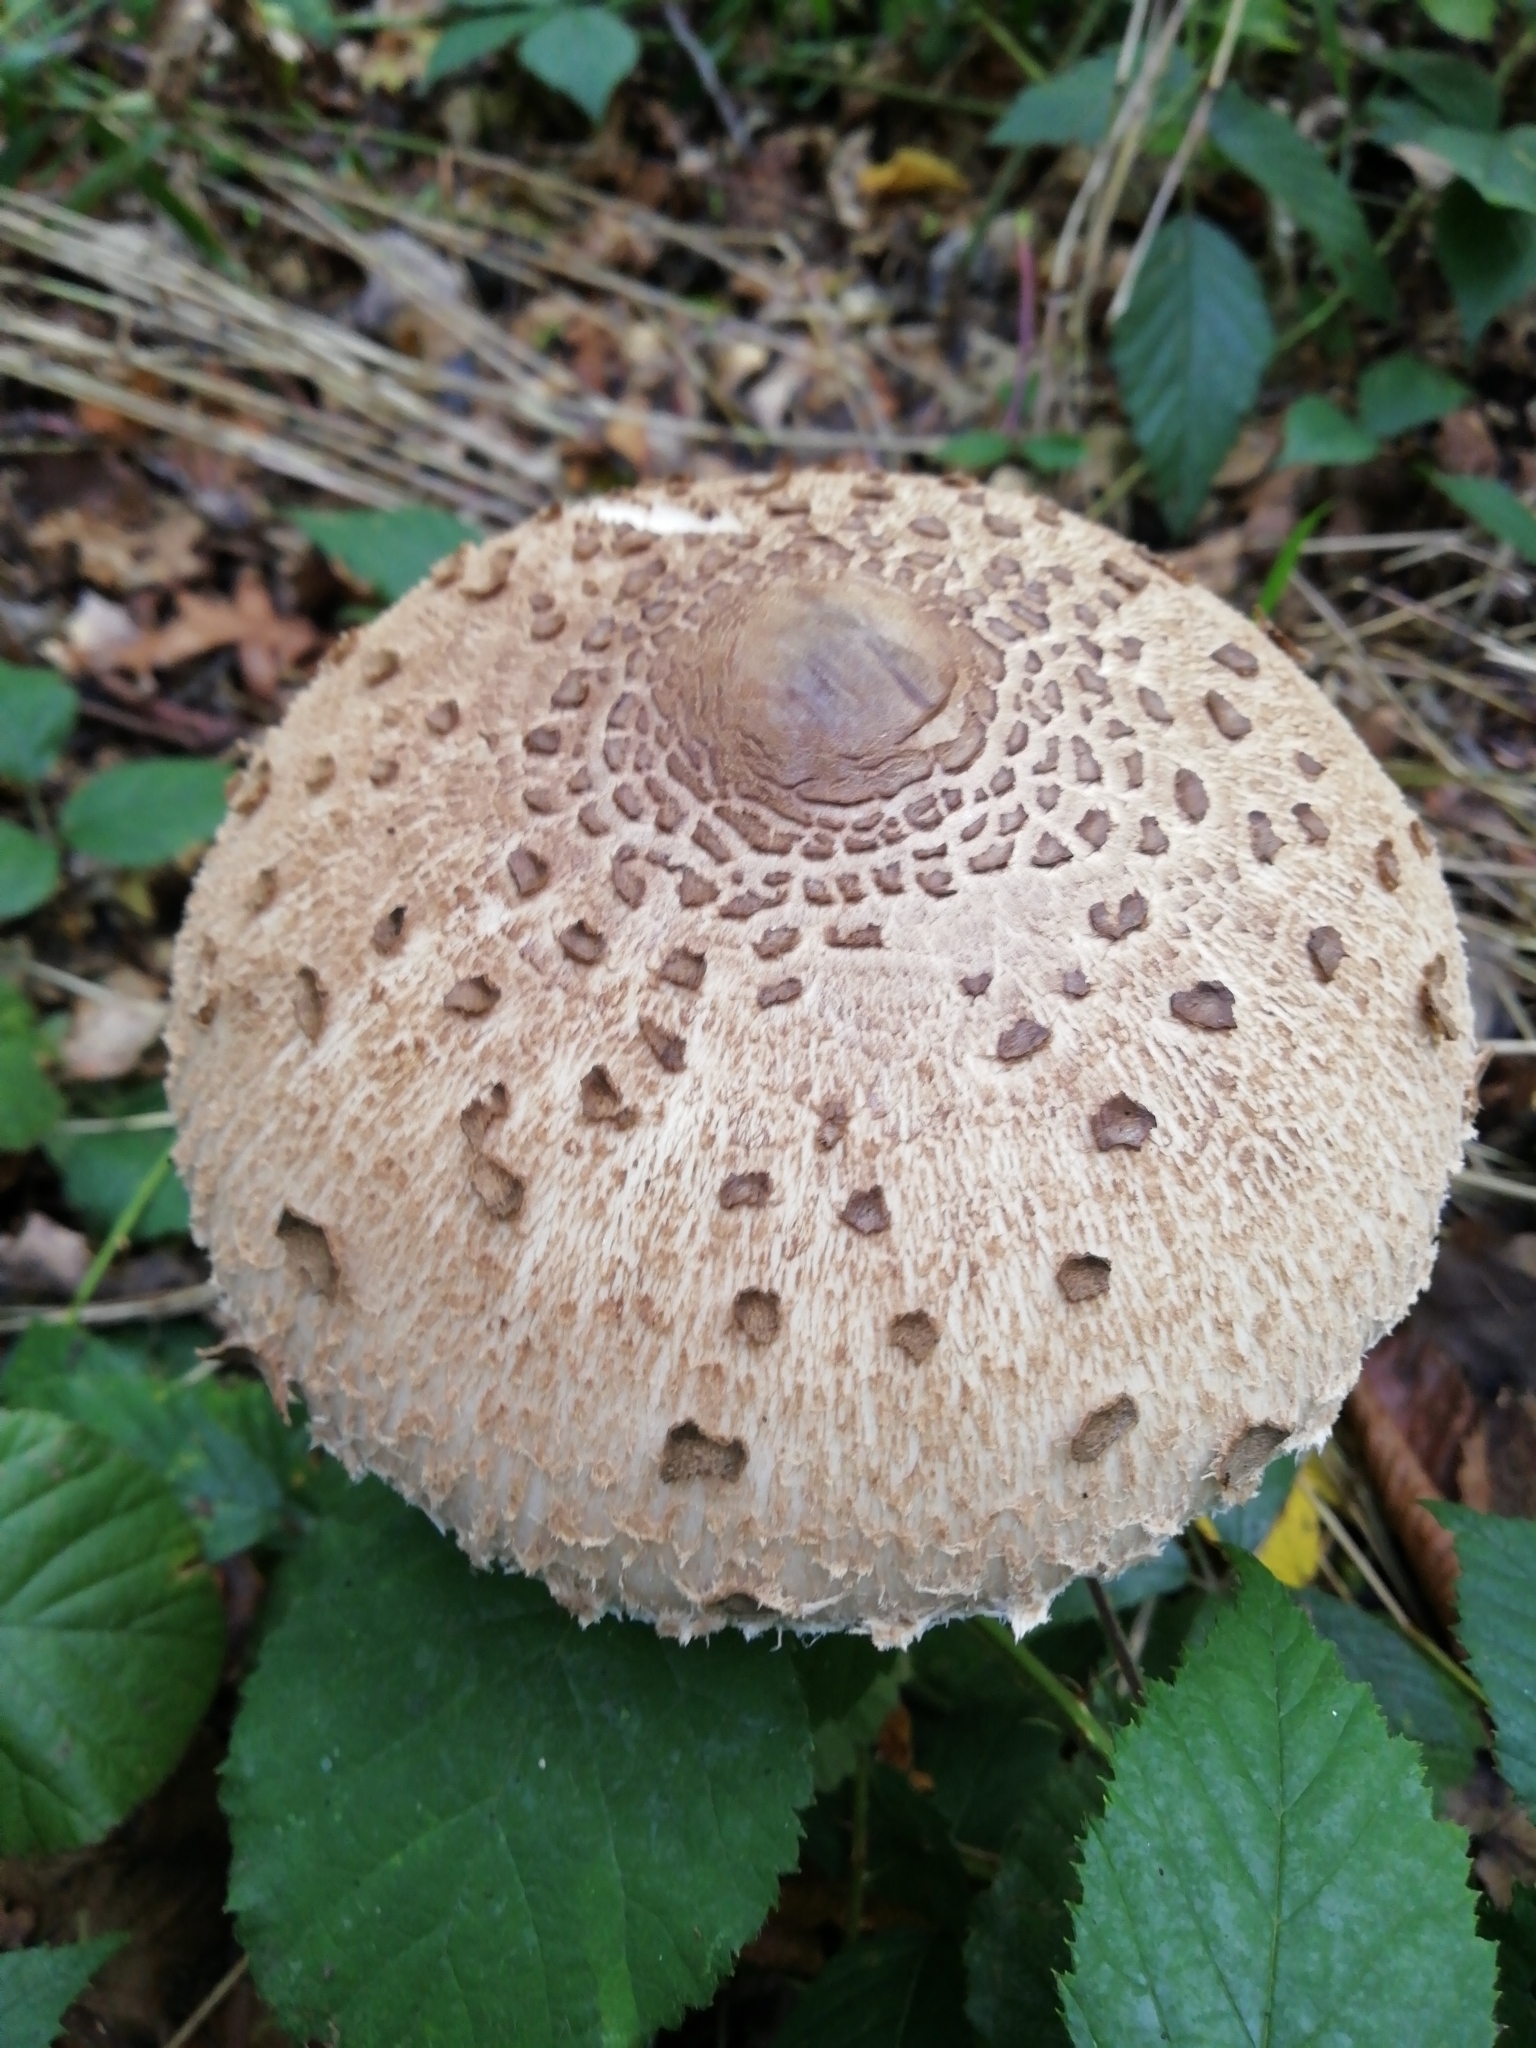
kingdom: Fungi
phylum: Basidiomycota
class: Agaricomycetes
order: Agaricales
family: Agaricaceae
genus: Macrolepiota
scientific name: Macrolepiota procera
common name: Parasol
